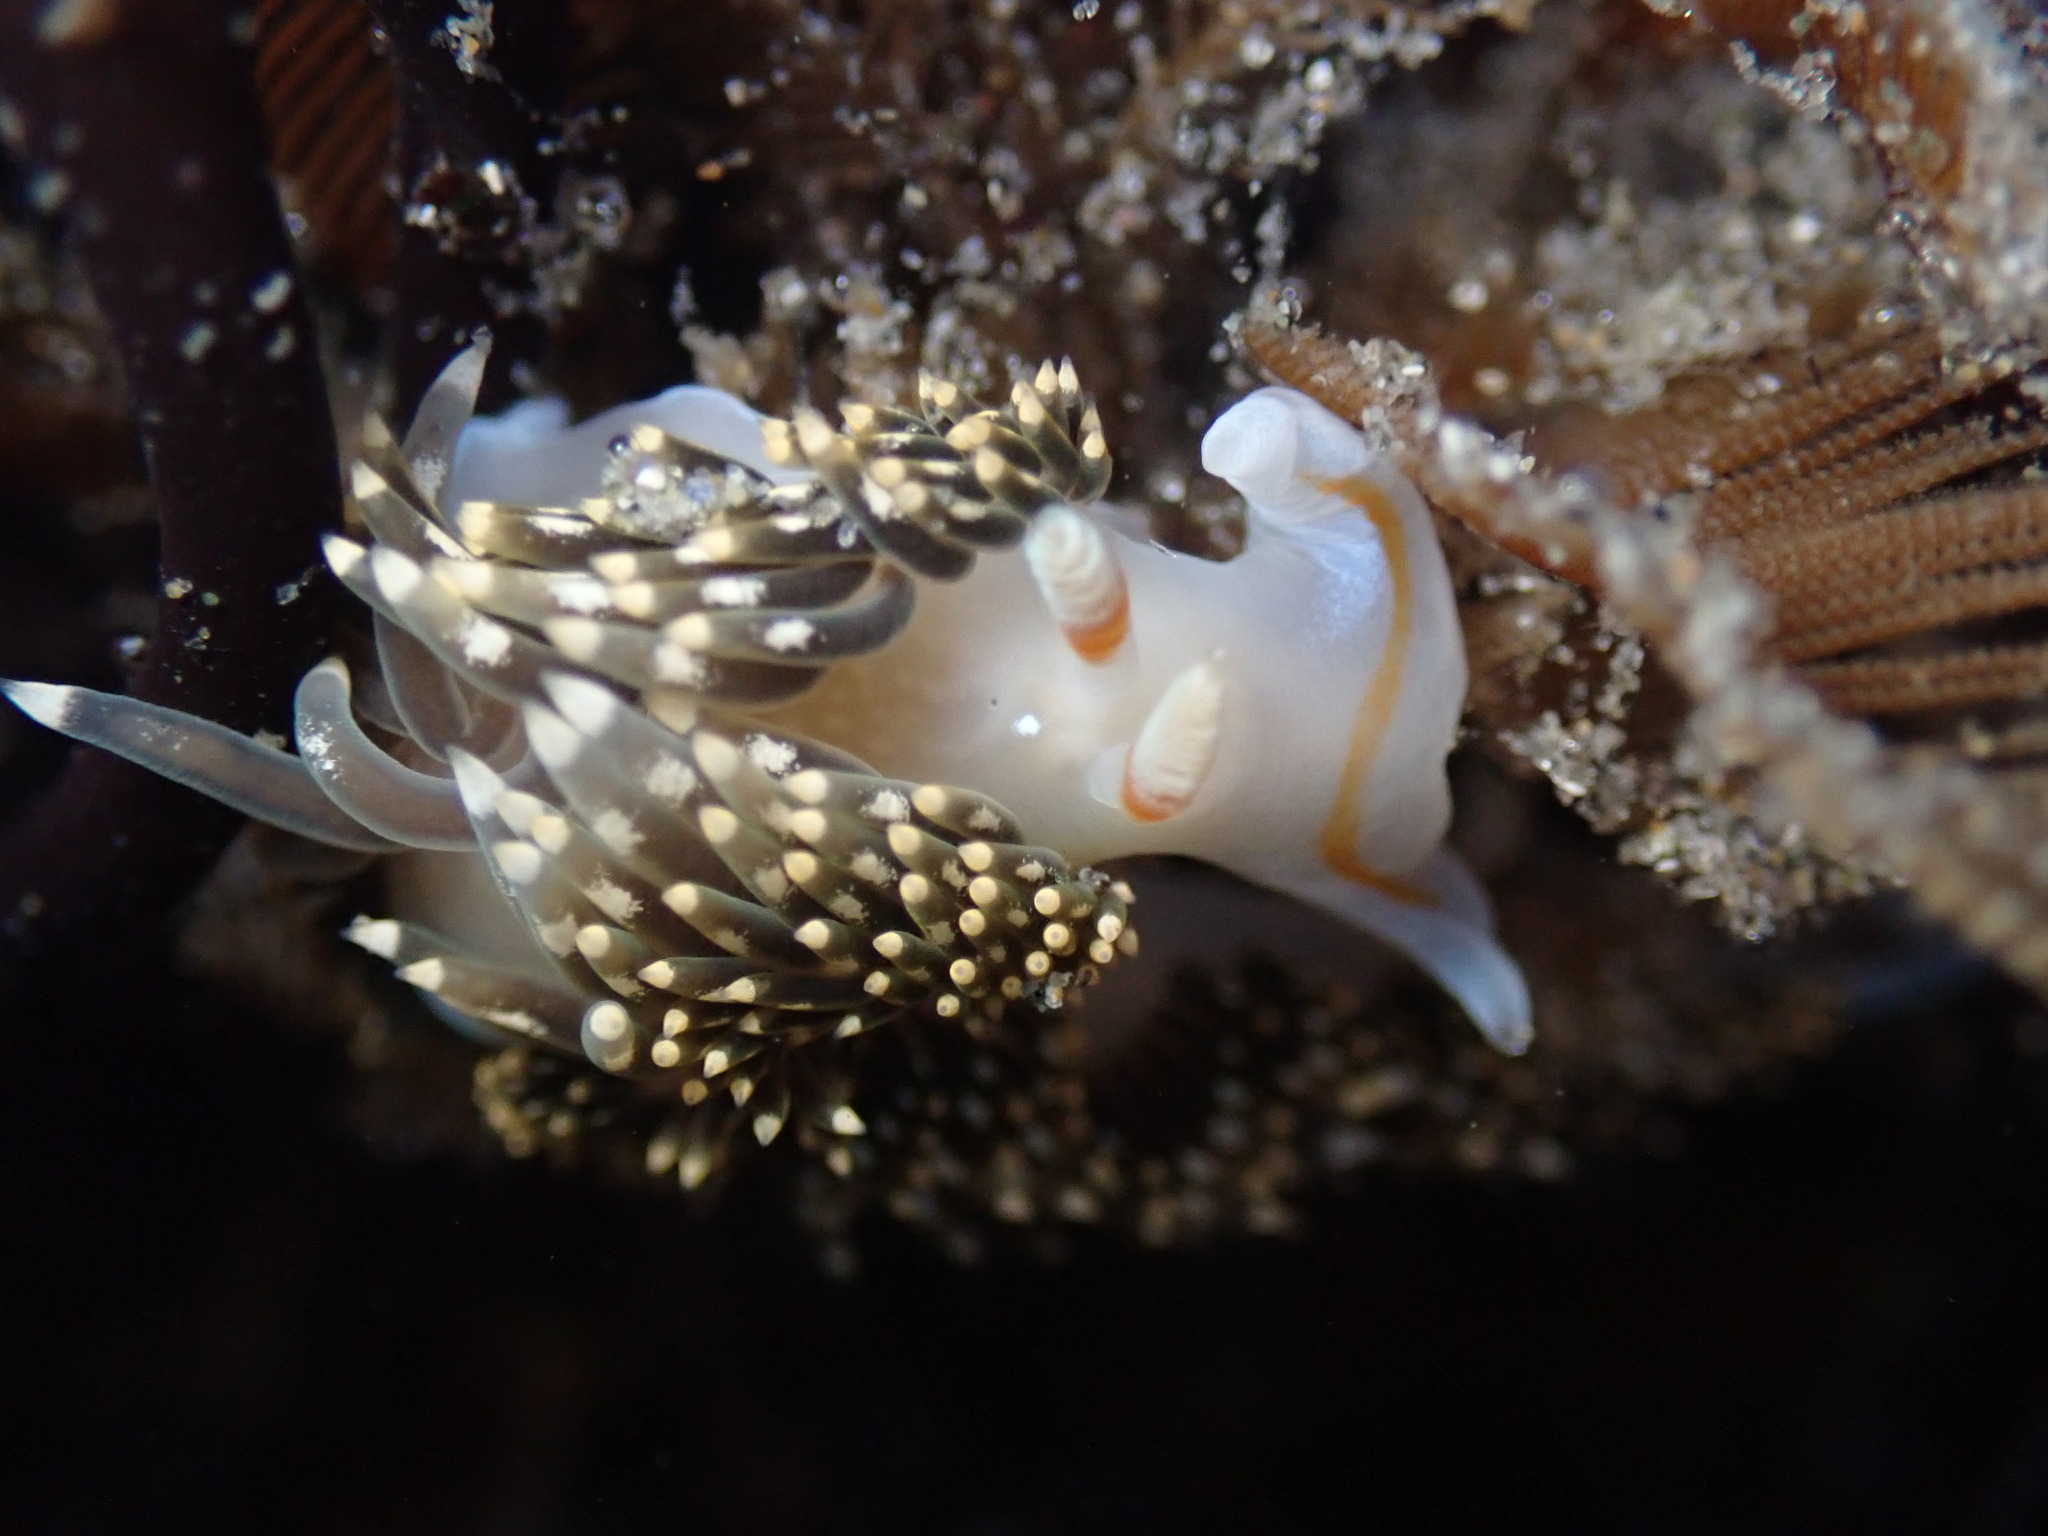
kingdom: Animalia
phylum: Mollusca
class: Gastropoda
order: Nudibranchia
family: Facelinidae
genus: Phidiana
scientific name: Phidiana hiltoni
